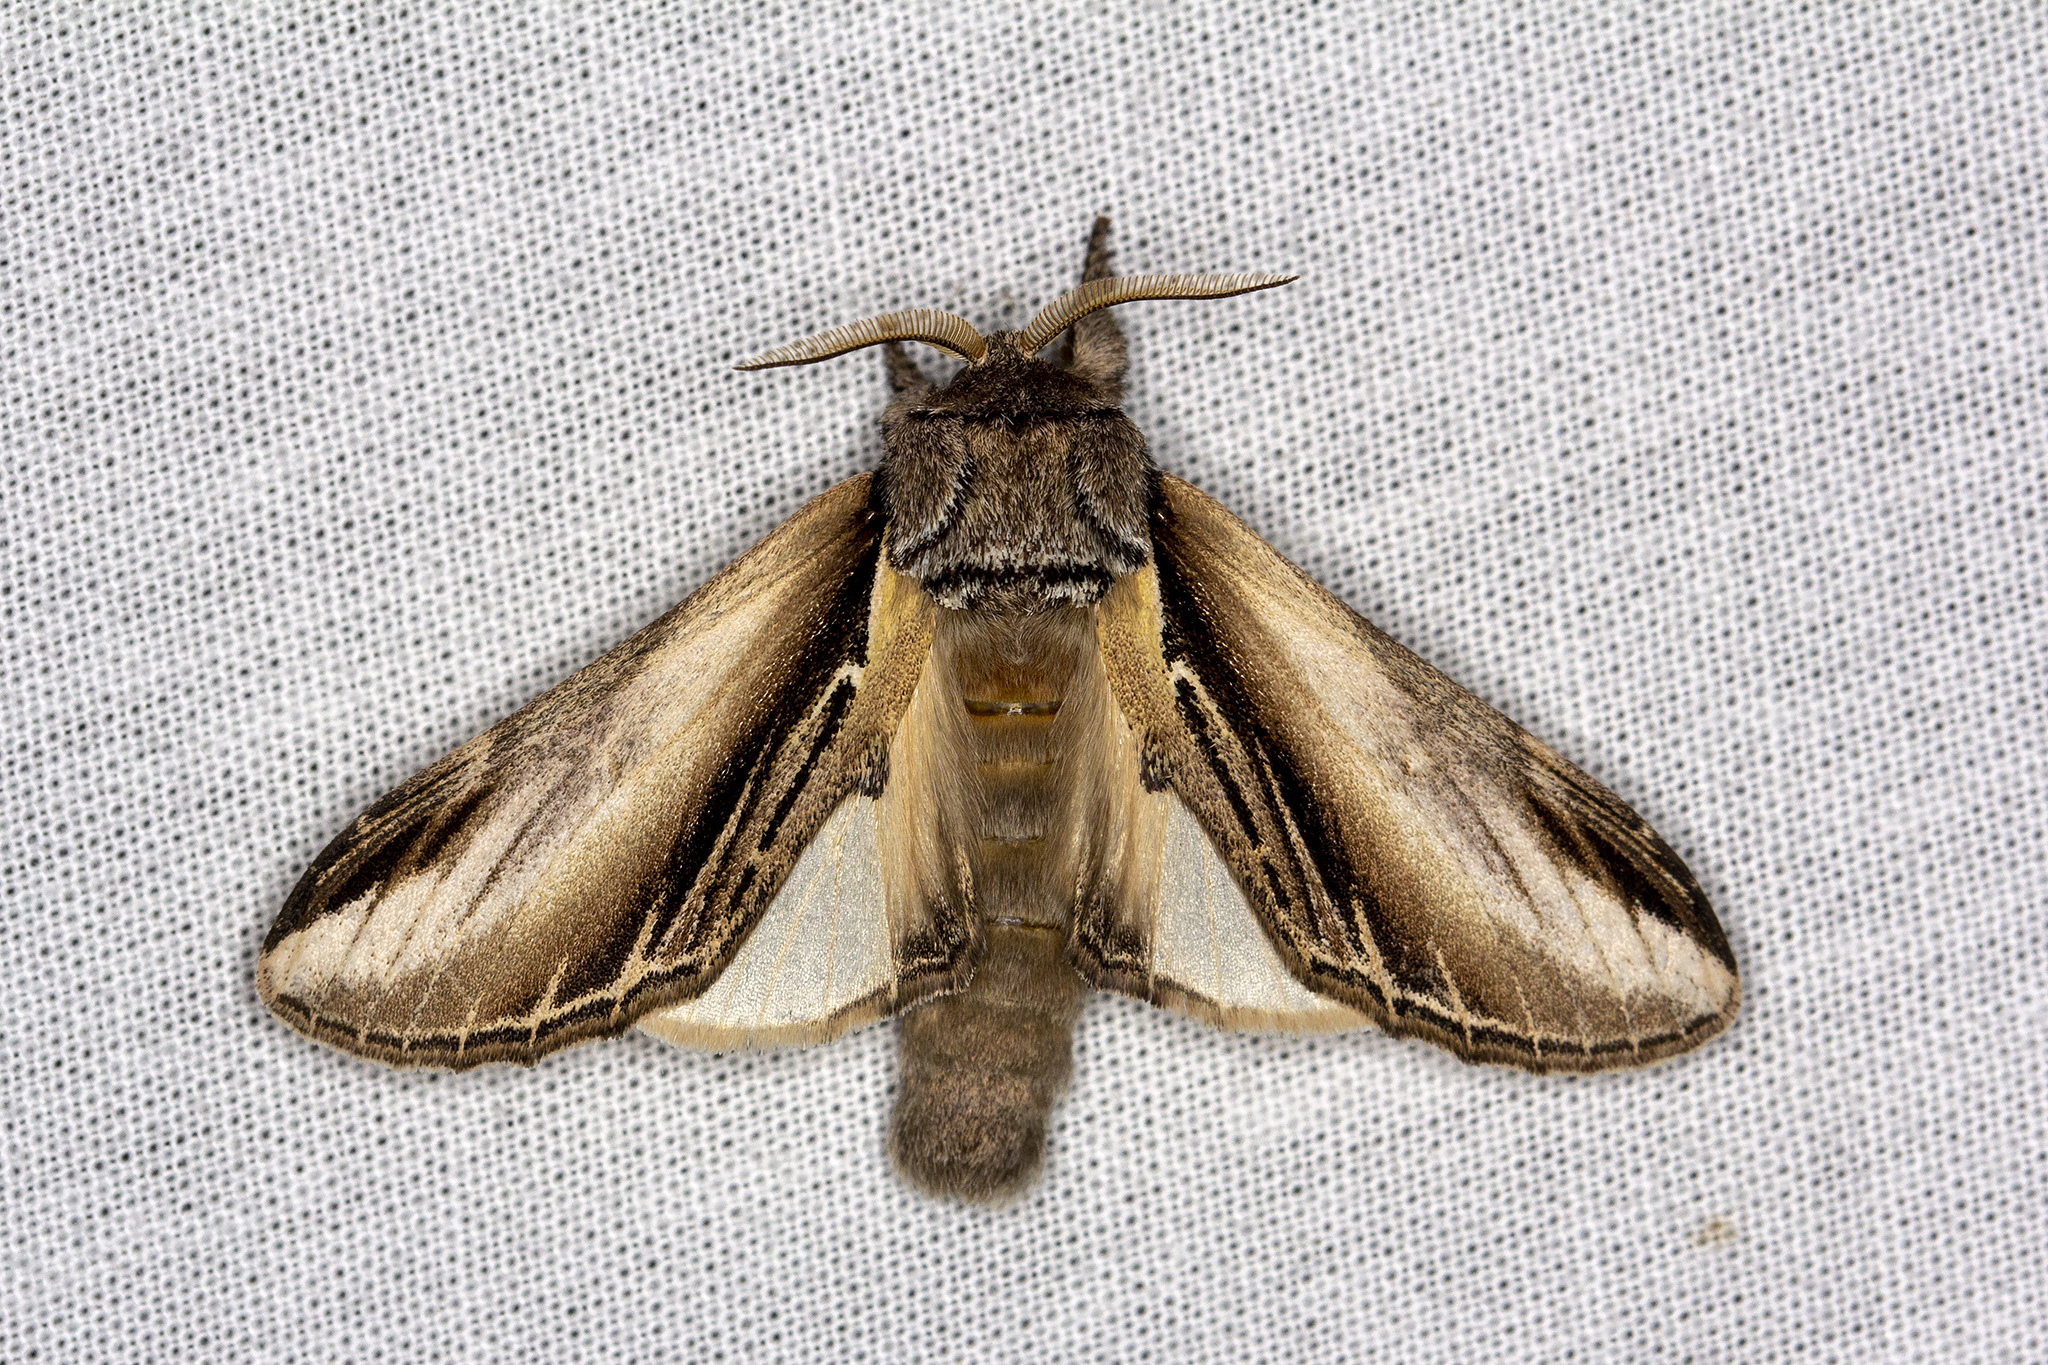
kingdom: Animalia
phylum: Arthropoda
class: Insecta
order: Lepidoptera
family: Notodontidae
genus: Pheosia
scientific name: Pheosia tremula
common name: Swallow prominent
